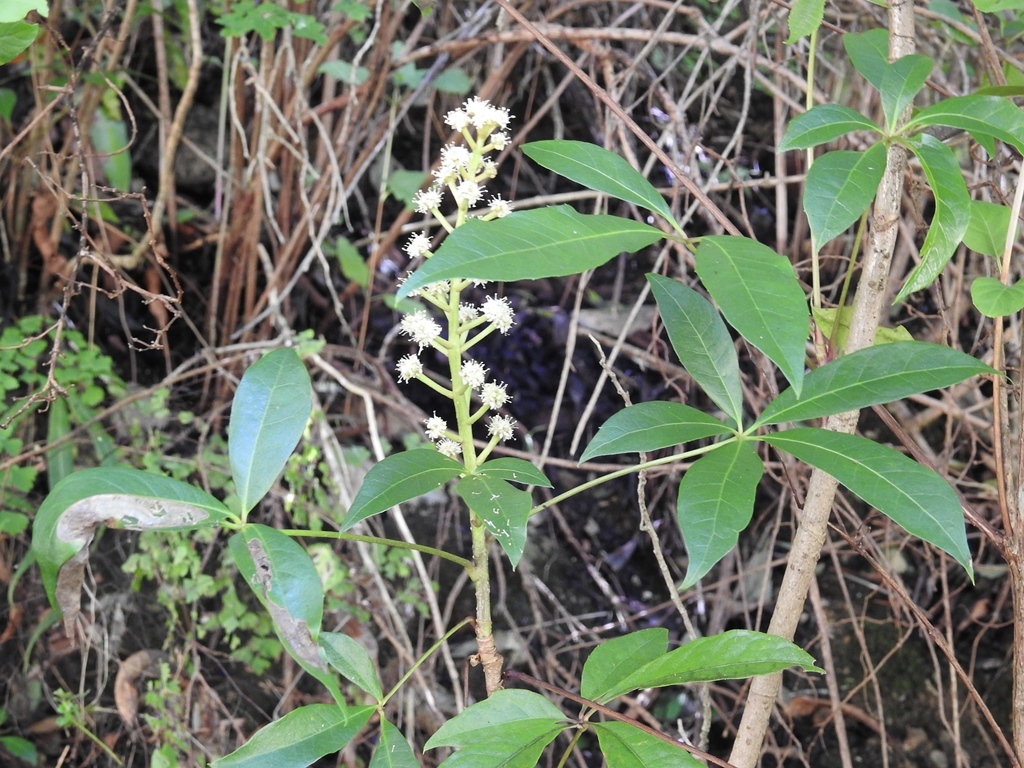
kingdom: Plantae
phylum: Tracheophyta
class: Magnoliopsida
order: Apiales
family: Araliaceae
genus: Oreopanax
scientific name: Oreopanax xalapensis
